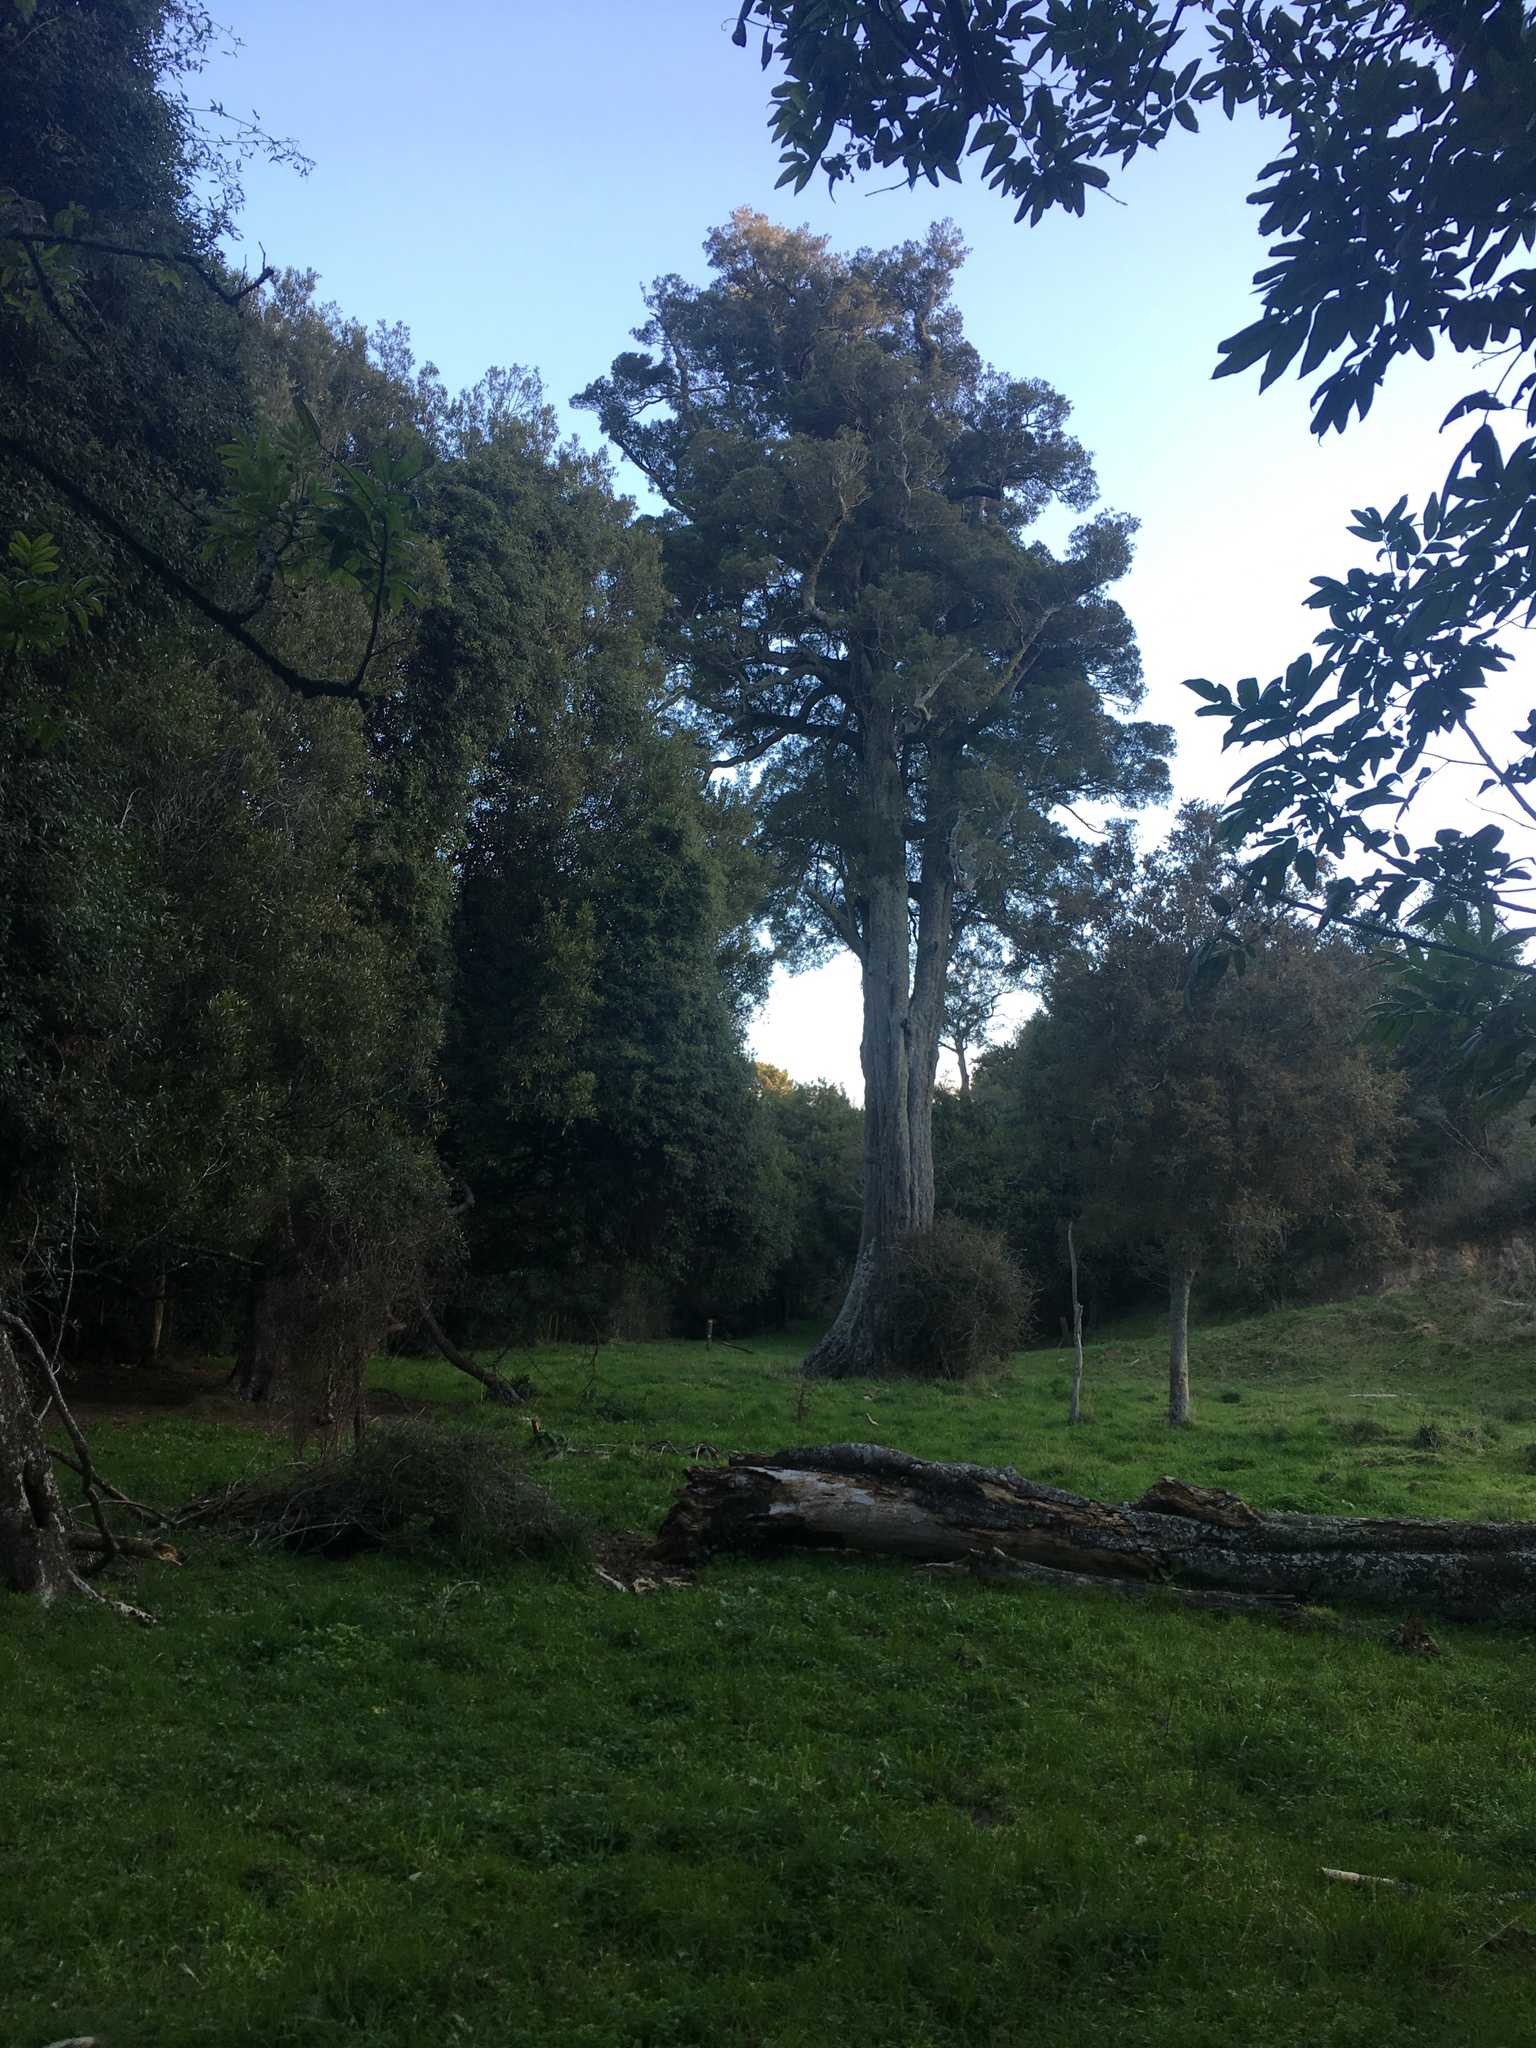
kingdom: Plantae
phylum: Tracheophyta
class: Pinopsida
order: Pinales
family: Podocarpaceae
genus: Dacrycarpus
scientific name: Dacrycarpus dacrydioides
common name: White pine
